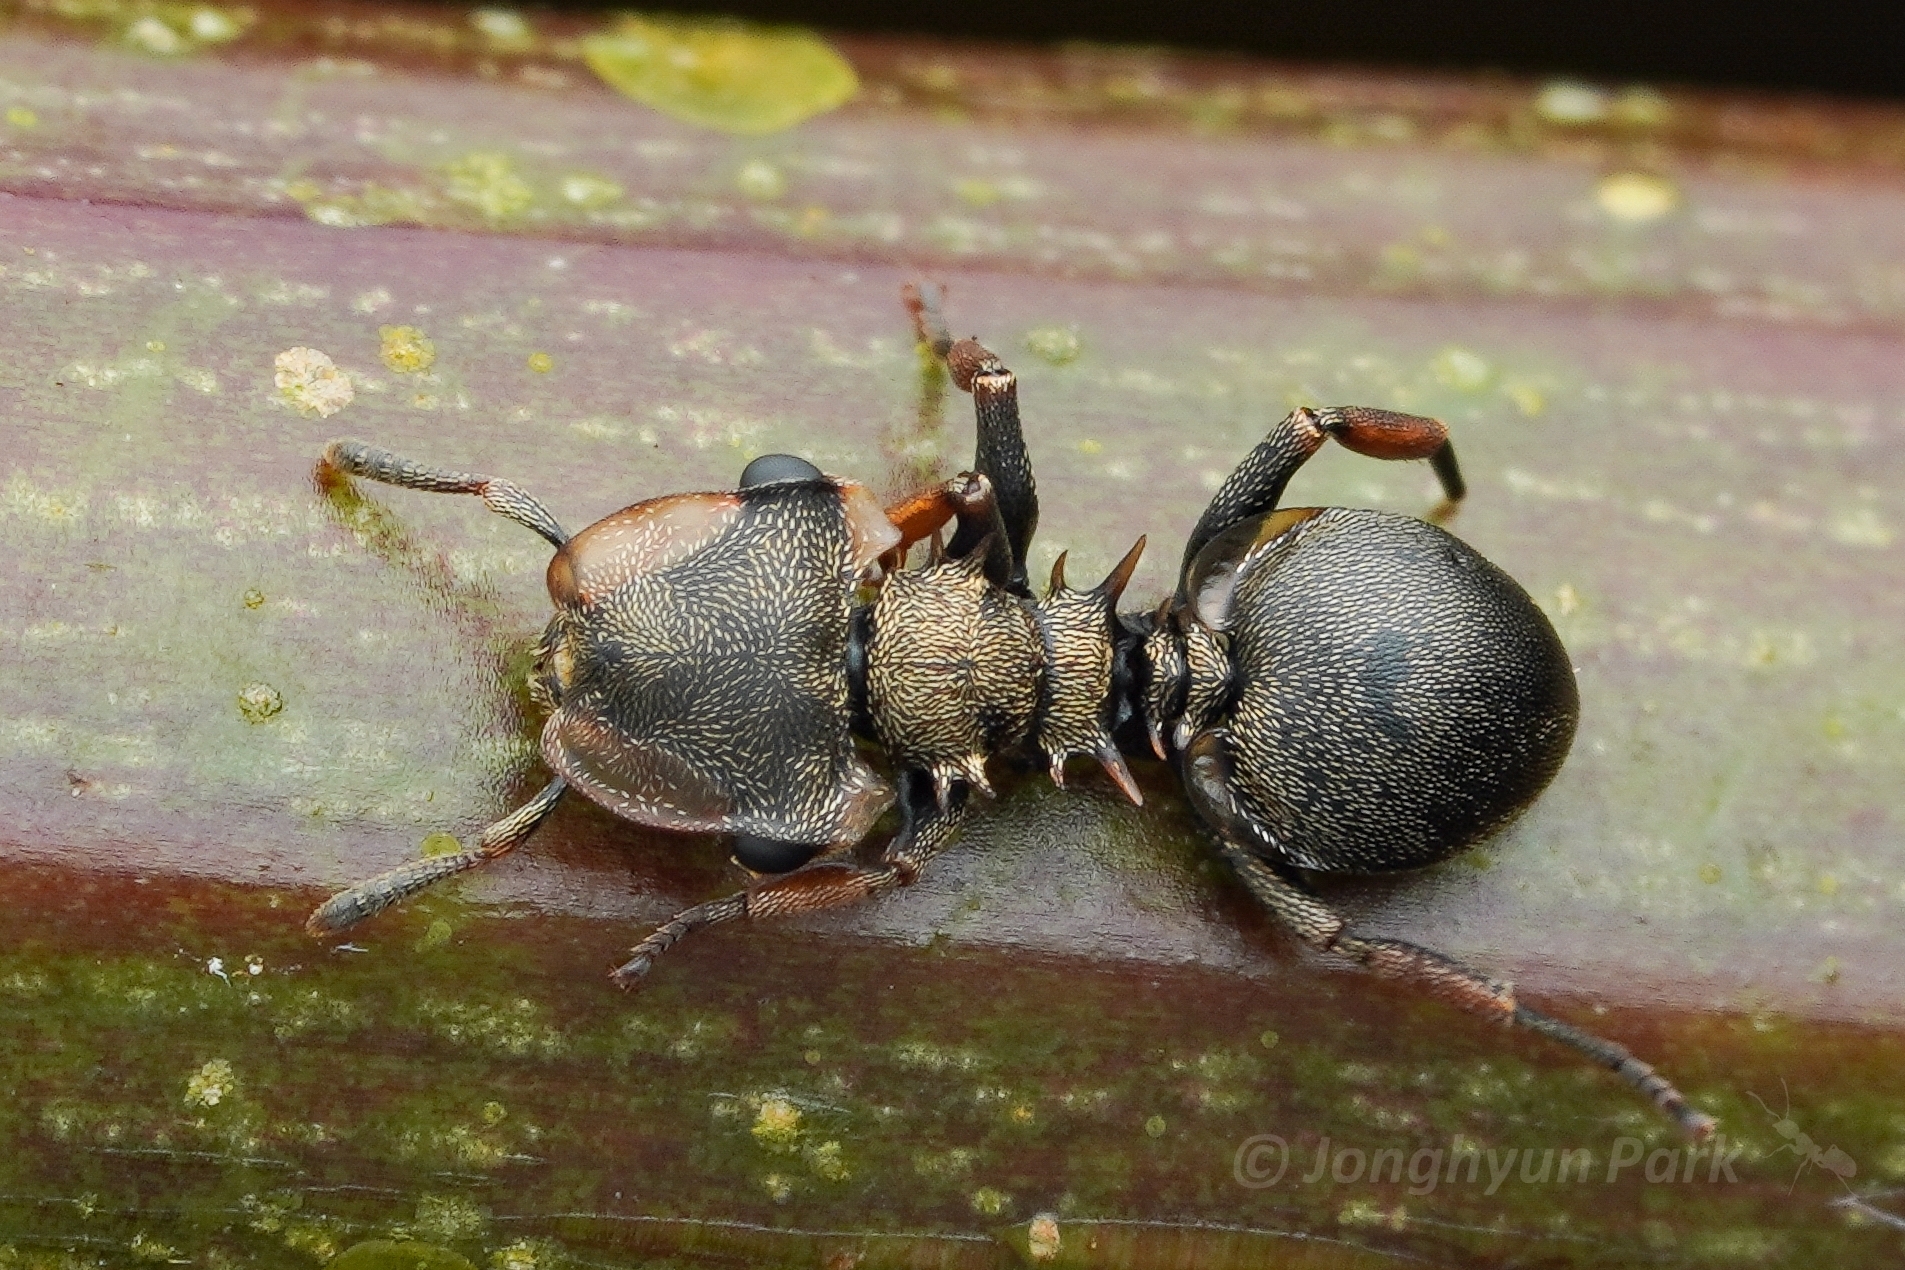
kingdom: Animalia
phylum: Arthropoda
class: Insecta
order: Hymenoptera
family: Formicidae
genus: Cephalotes
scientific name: Cephalotes spinosus
